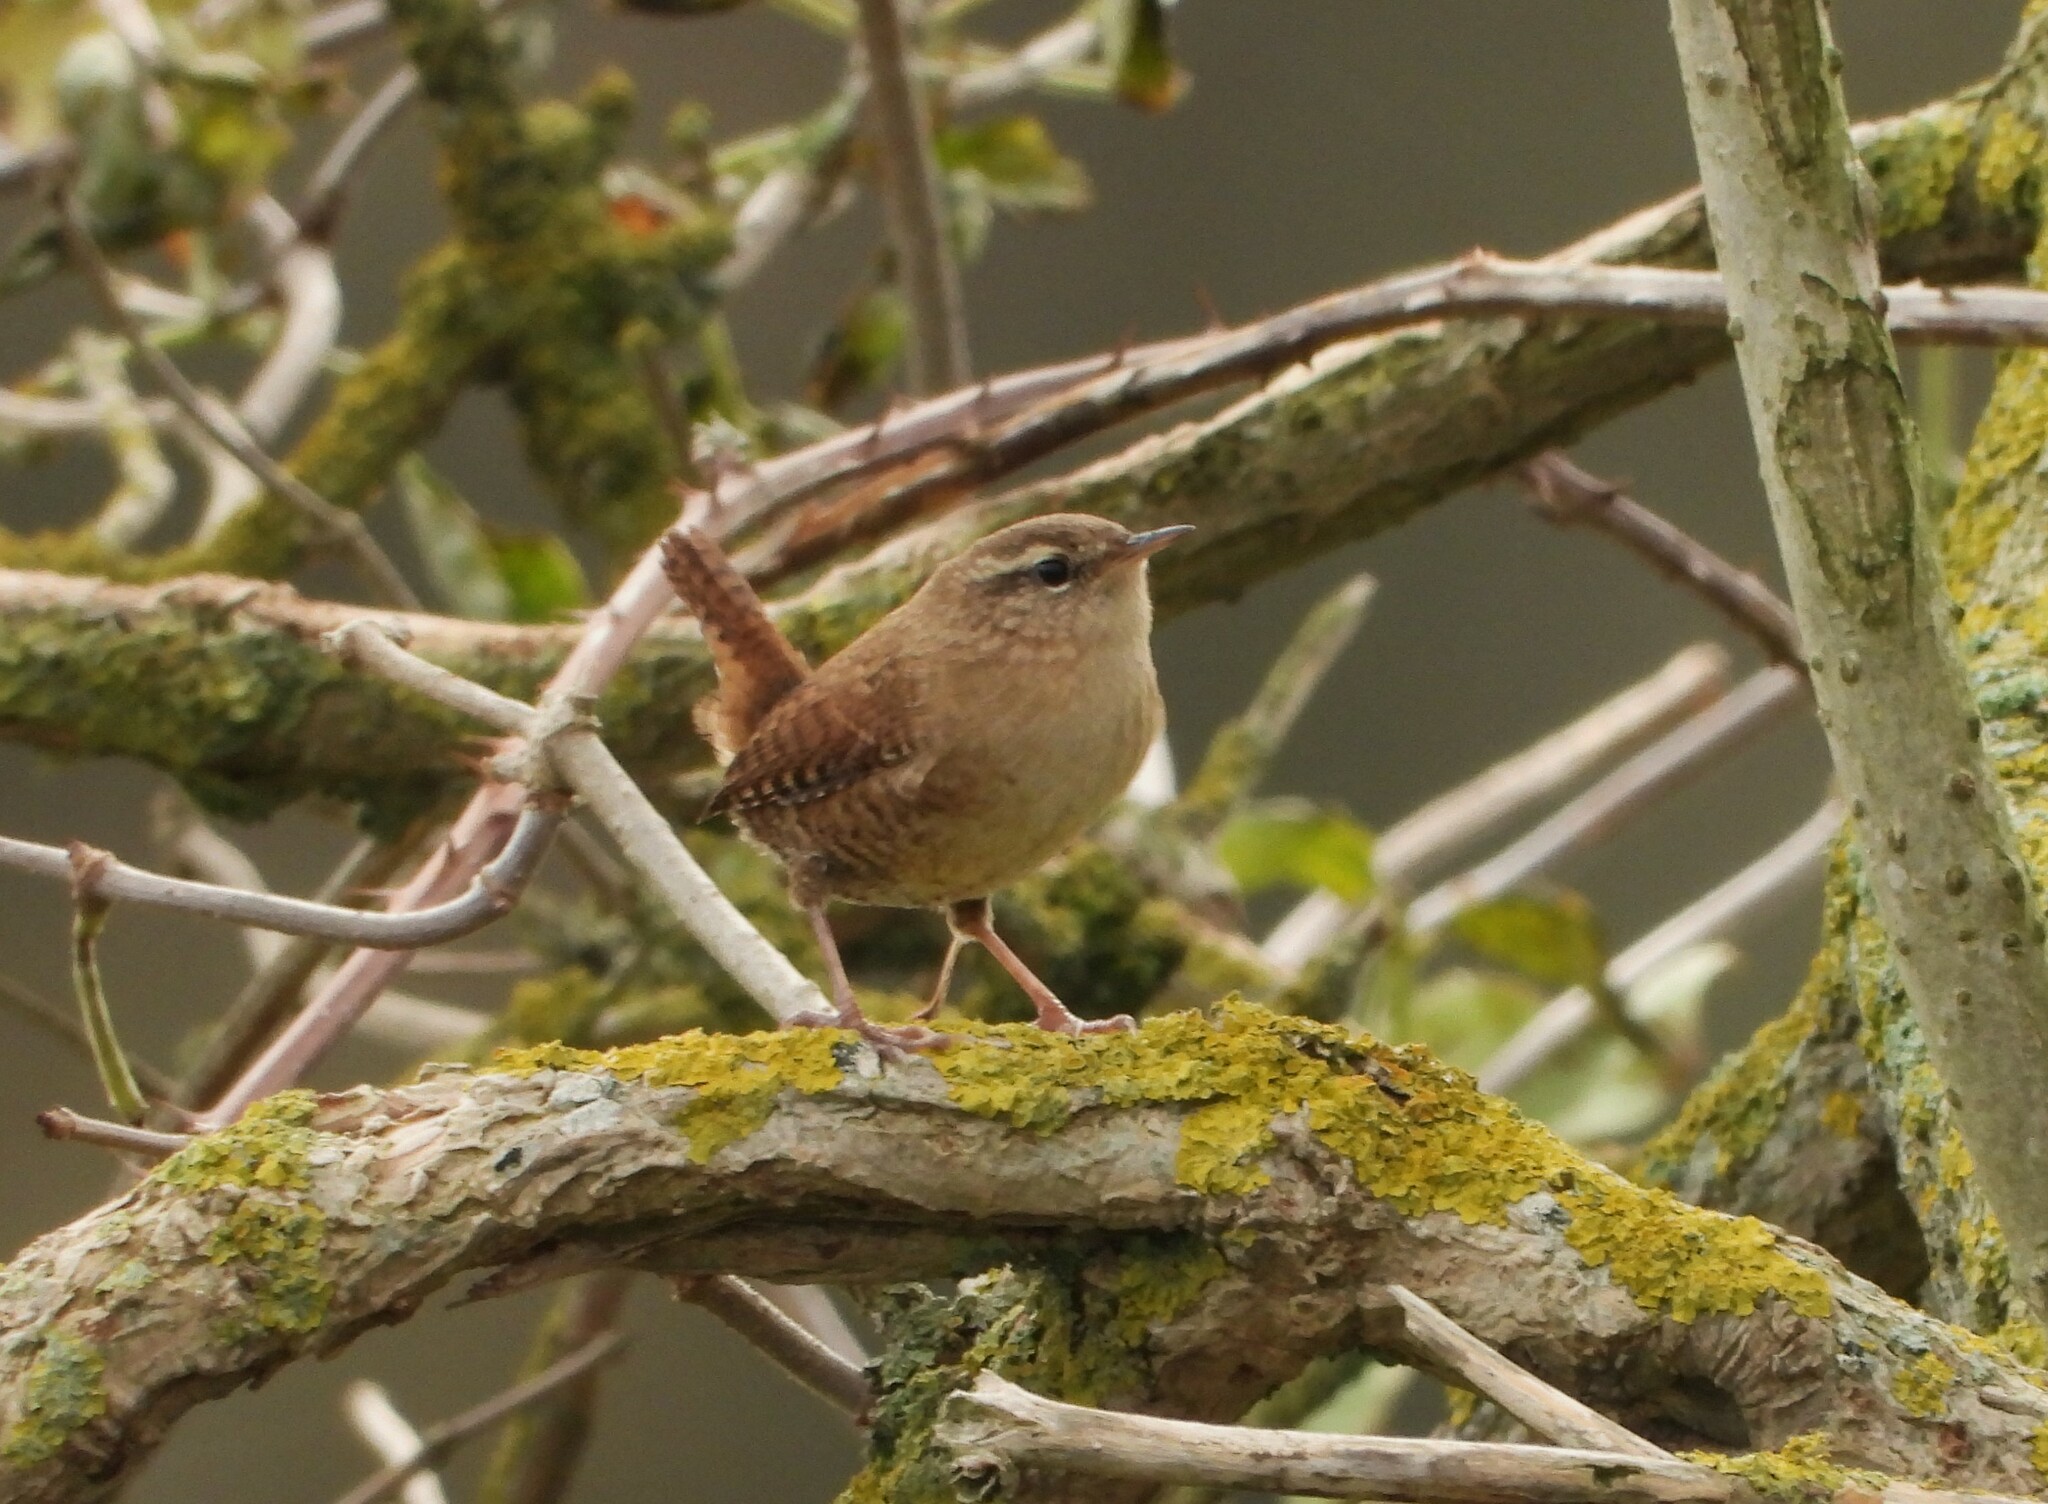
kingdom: Animalia
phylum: Chordata
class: Aves
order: Passeriformes
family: Troglodytidae
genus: Troglodytes
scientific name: Troglodytes troglodytes
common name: Eurasian wren
